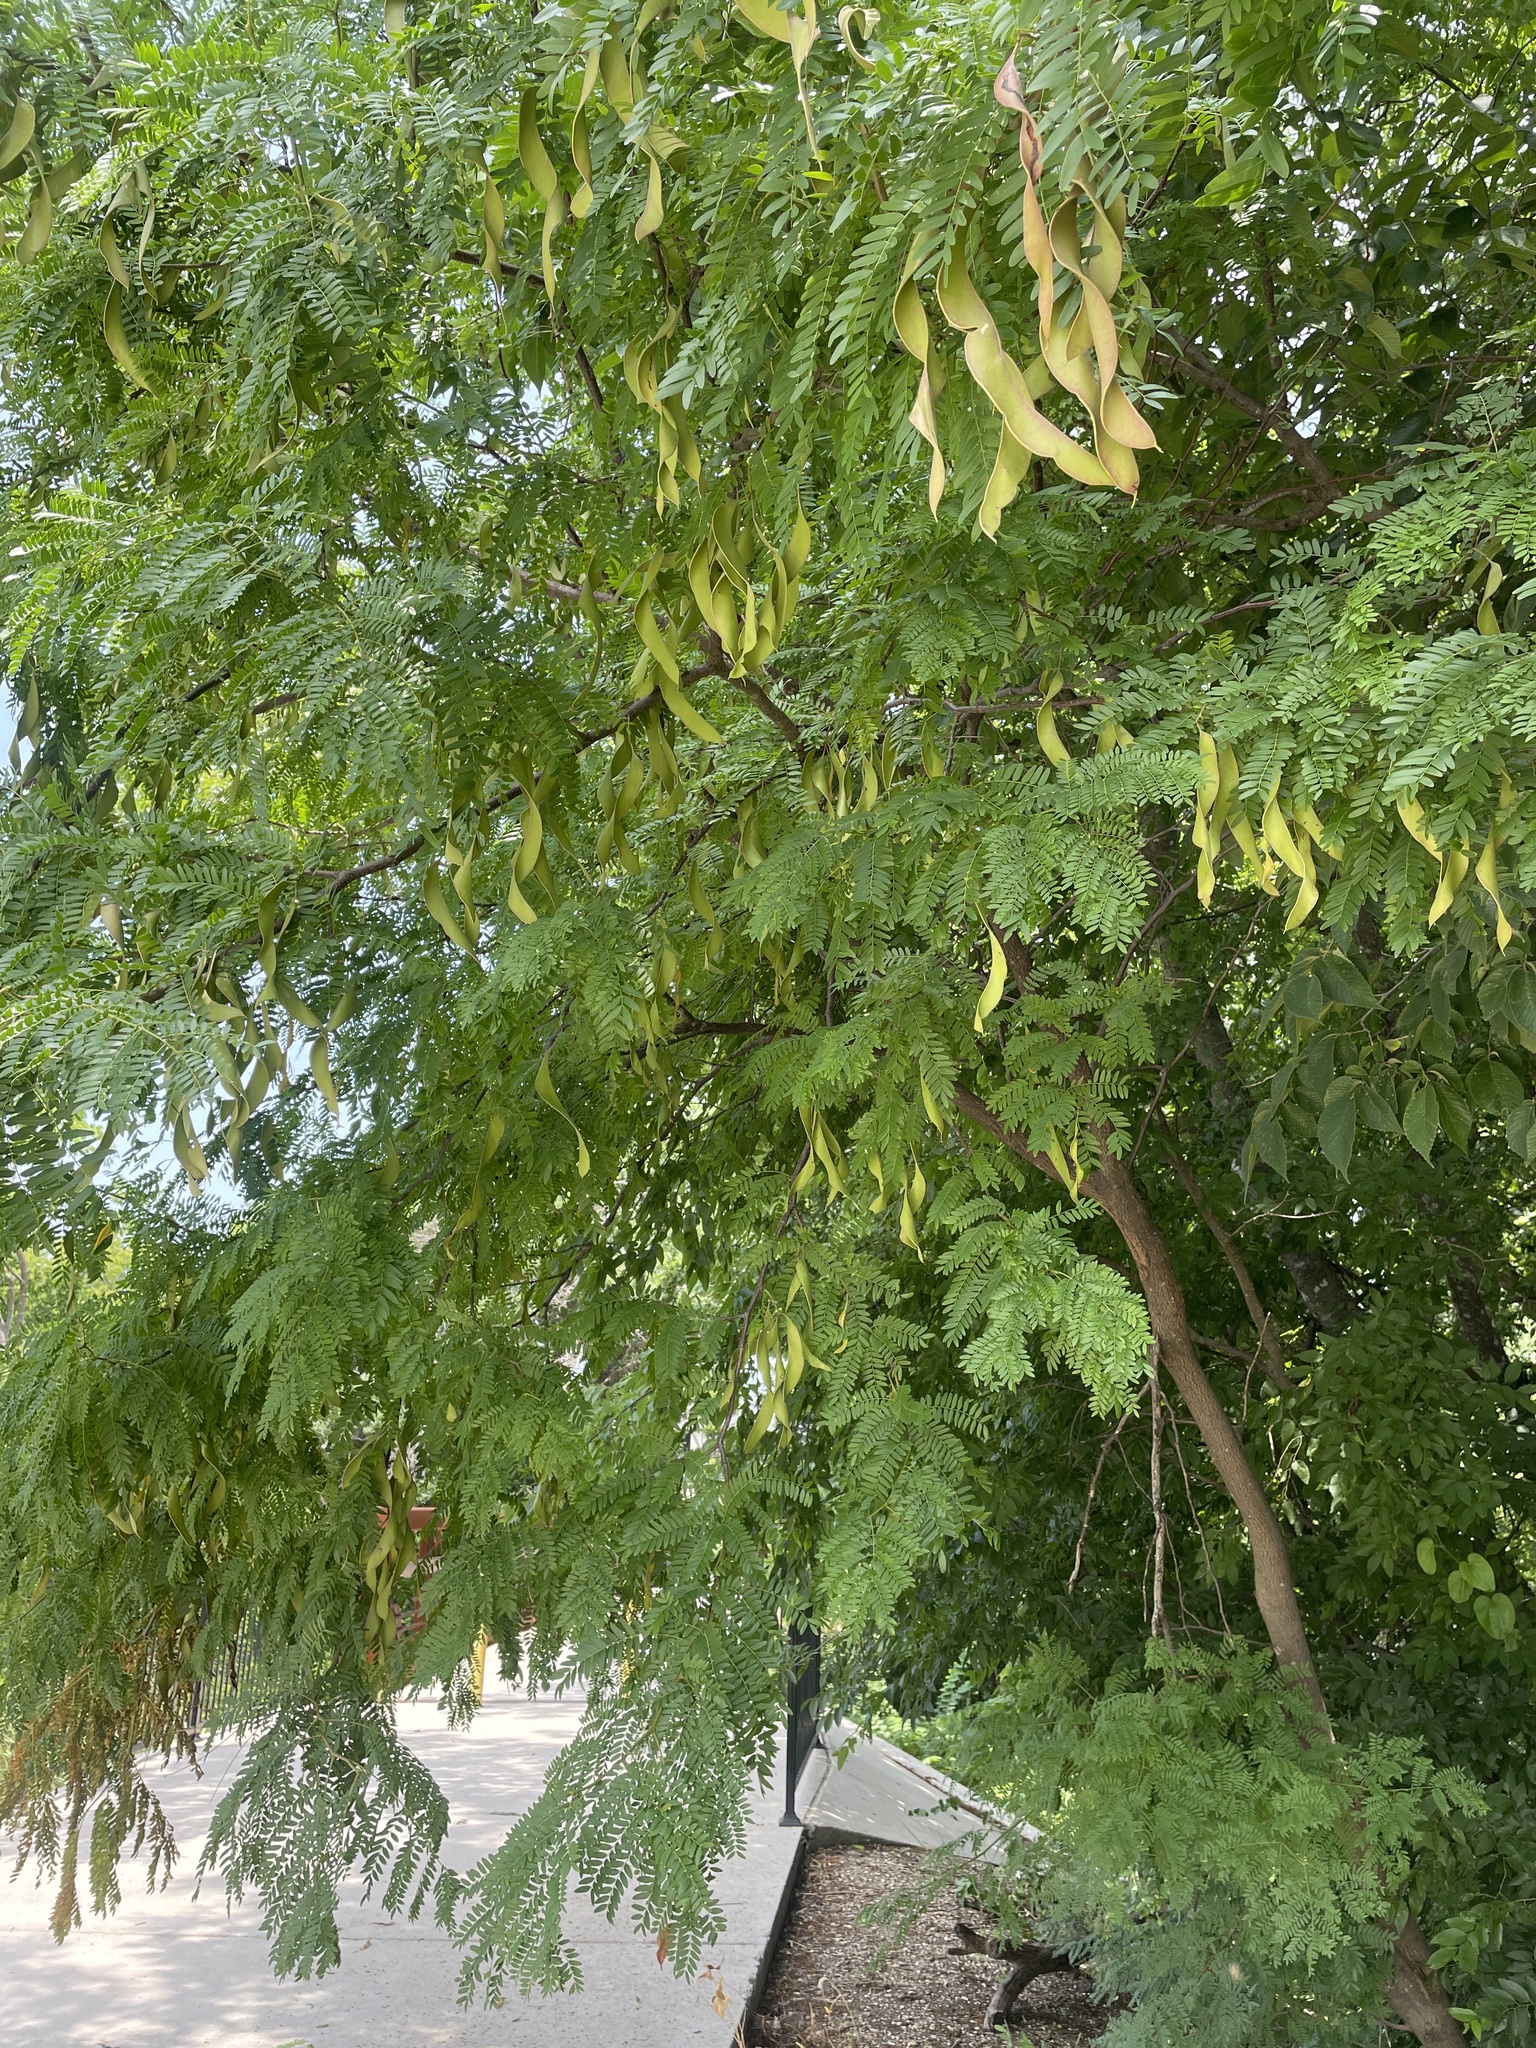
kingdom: Plantae
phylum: Tracheophyta
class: Magnoliopsida
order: Fabales
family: Fabaceae
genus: Gleditsia
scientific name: Gleditsia triacanthos
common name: Common honeylocust
